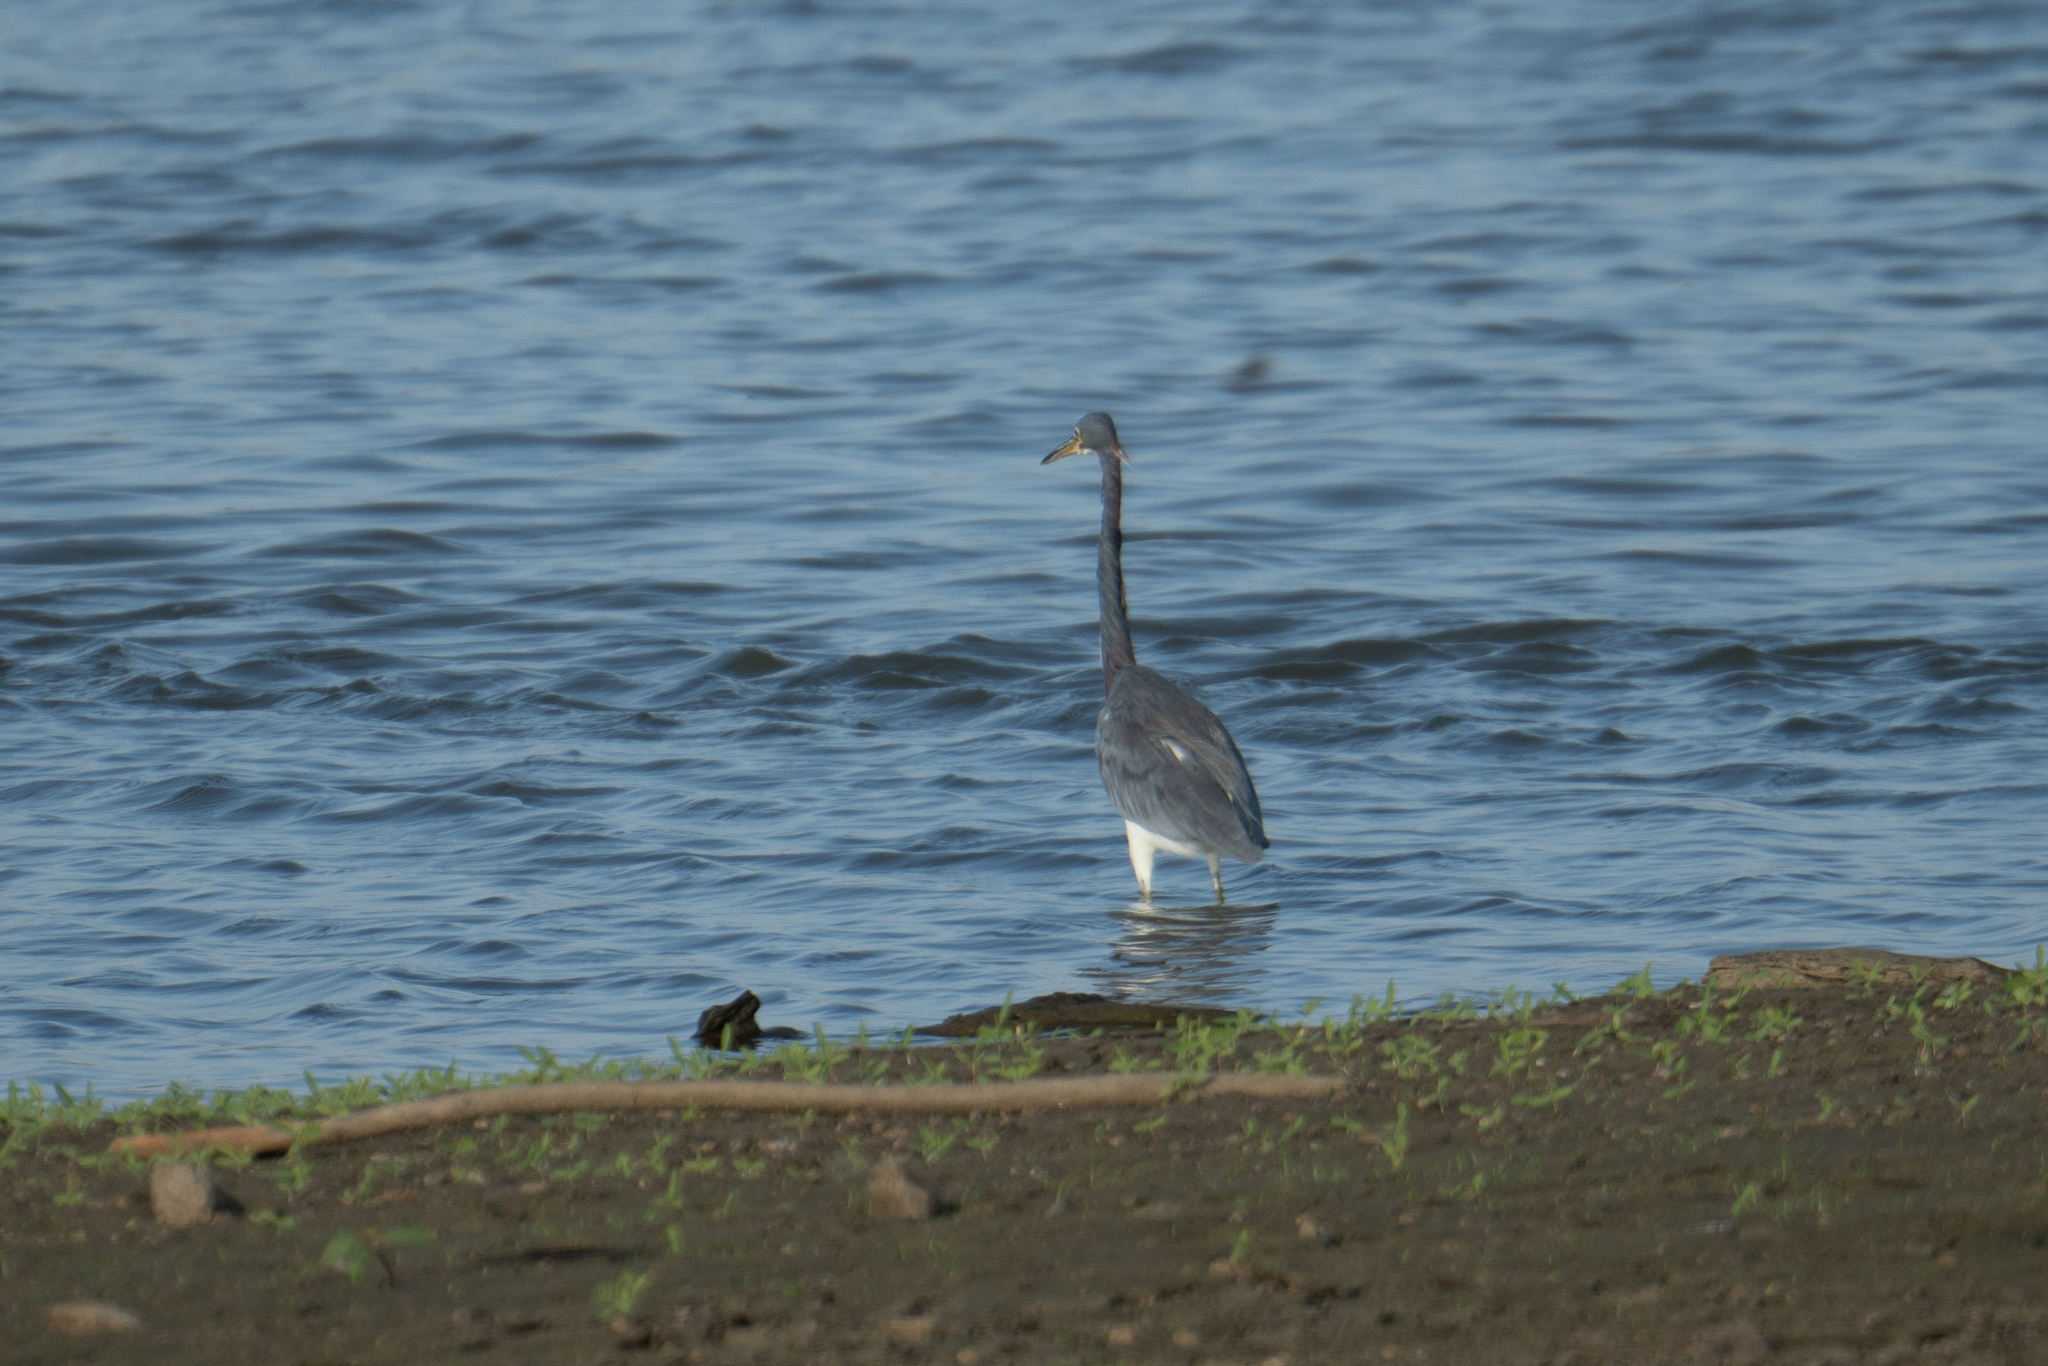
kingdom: Animalia
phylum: Chordata
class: Aves
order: Pelecaniformes
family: Ardeidae
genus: Ardea
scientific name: Ardea herodias
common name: Great blue heron
